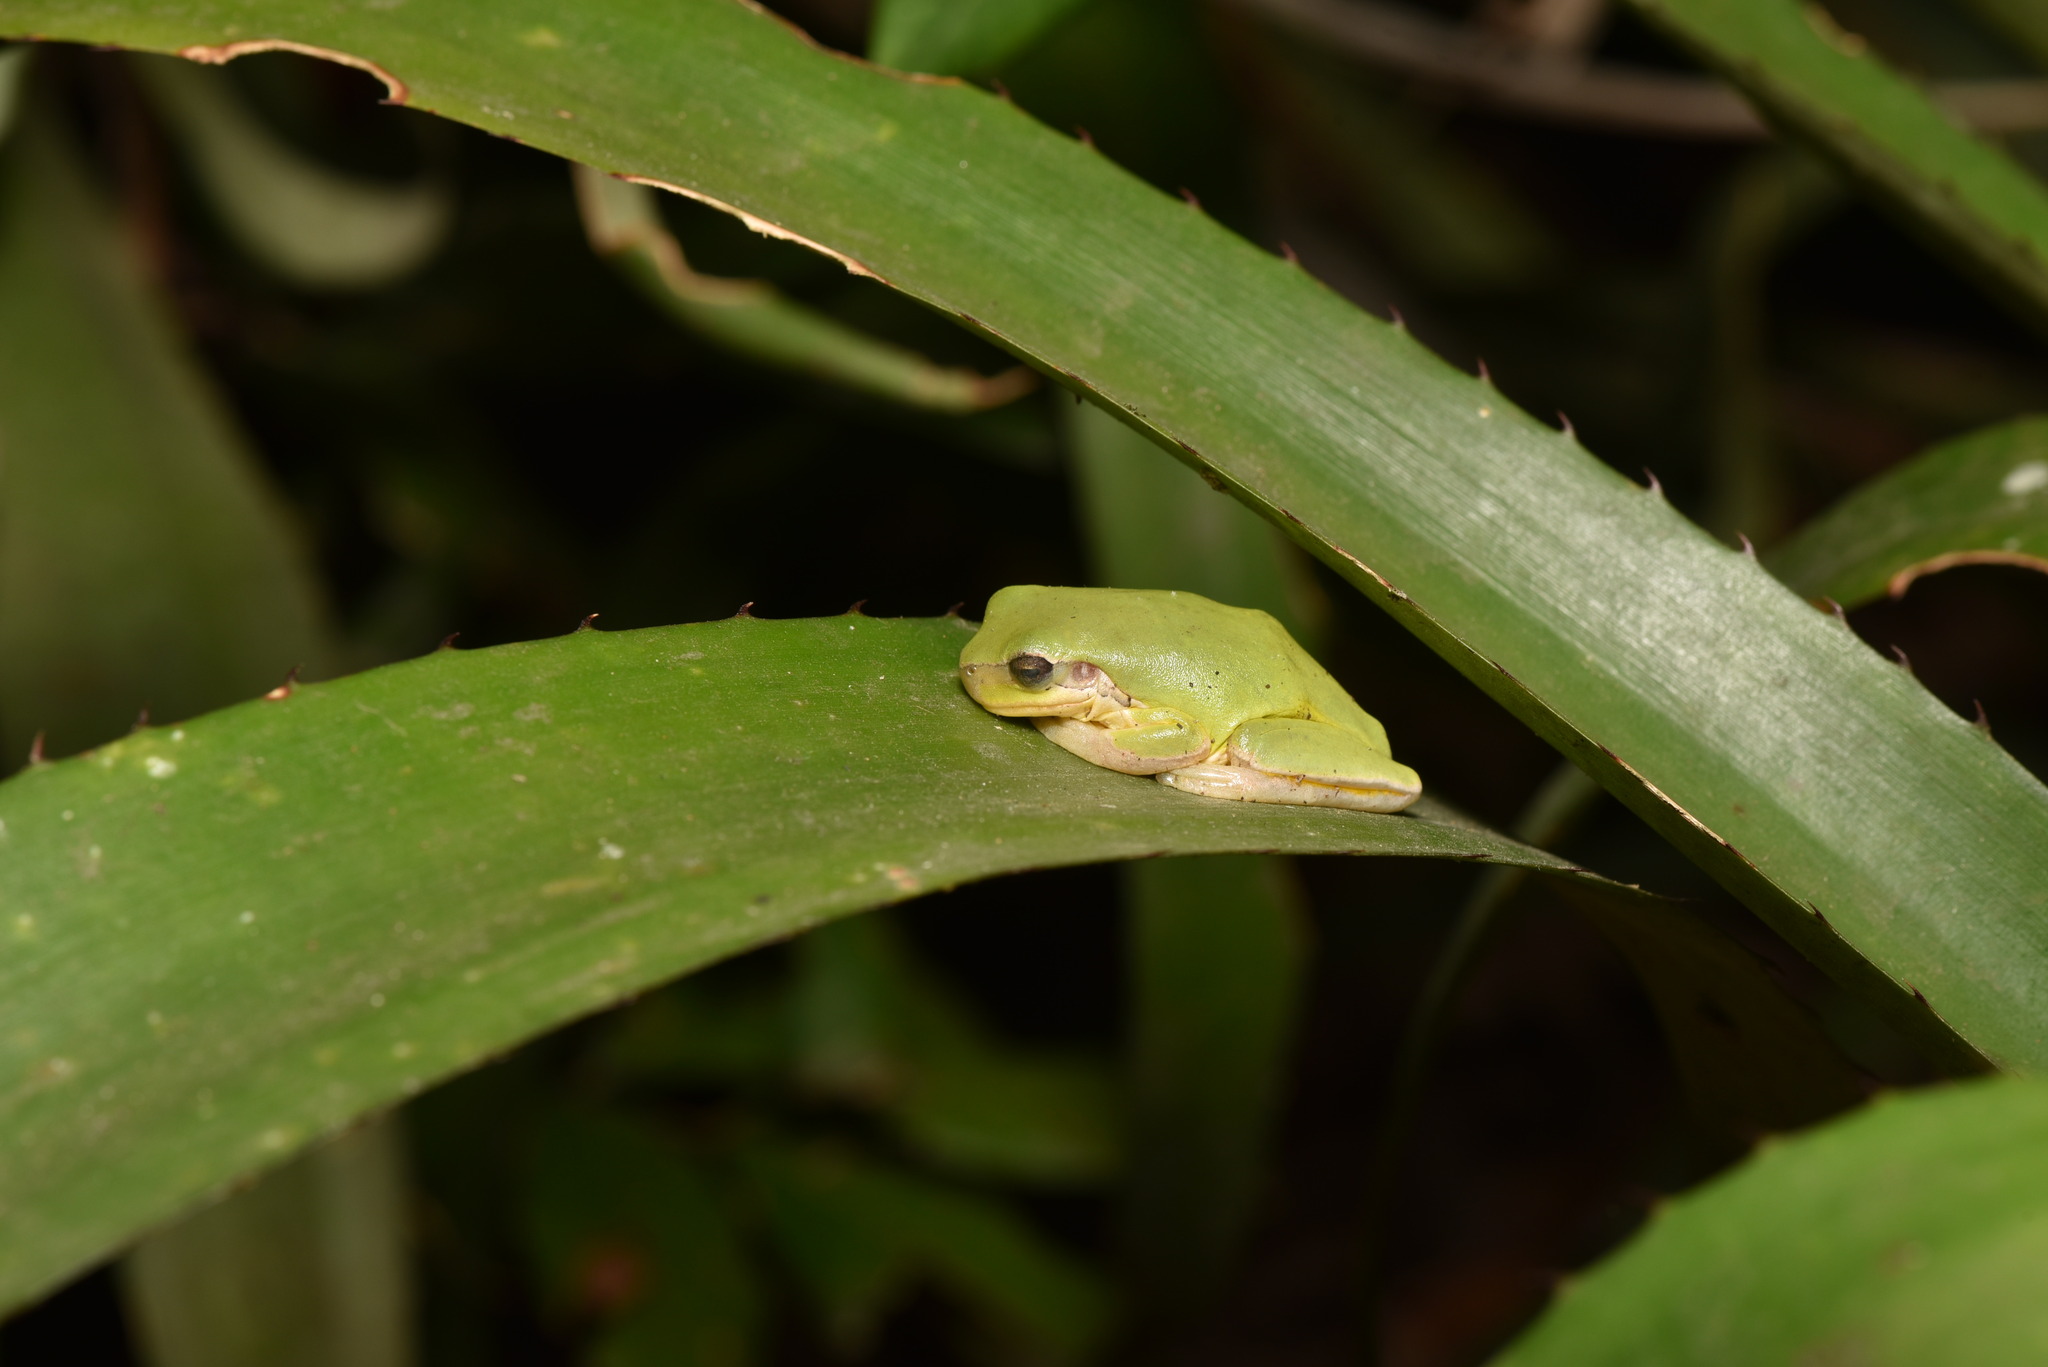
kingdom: Animalia
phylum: Chordata
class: Amphibia
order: Anura
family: Hylidae
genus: Hyla
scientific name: Hyla chinensis
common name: Common chinese treefrog
